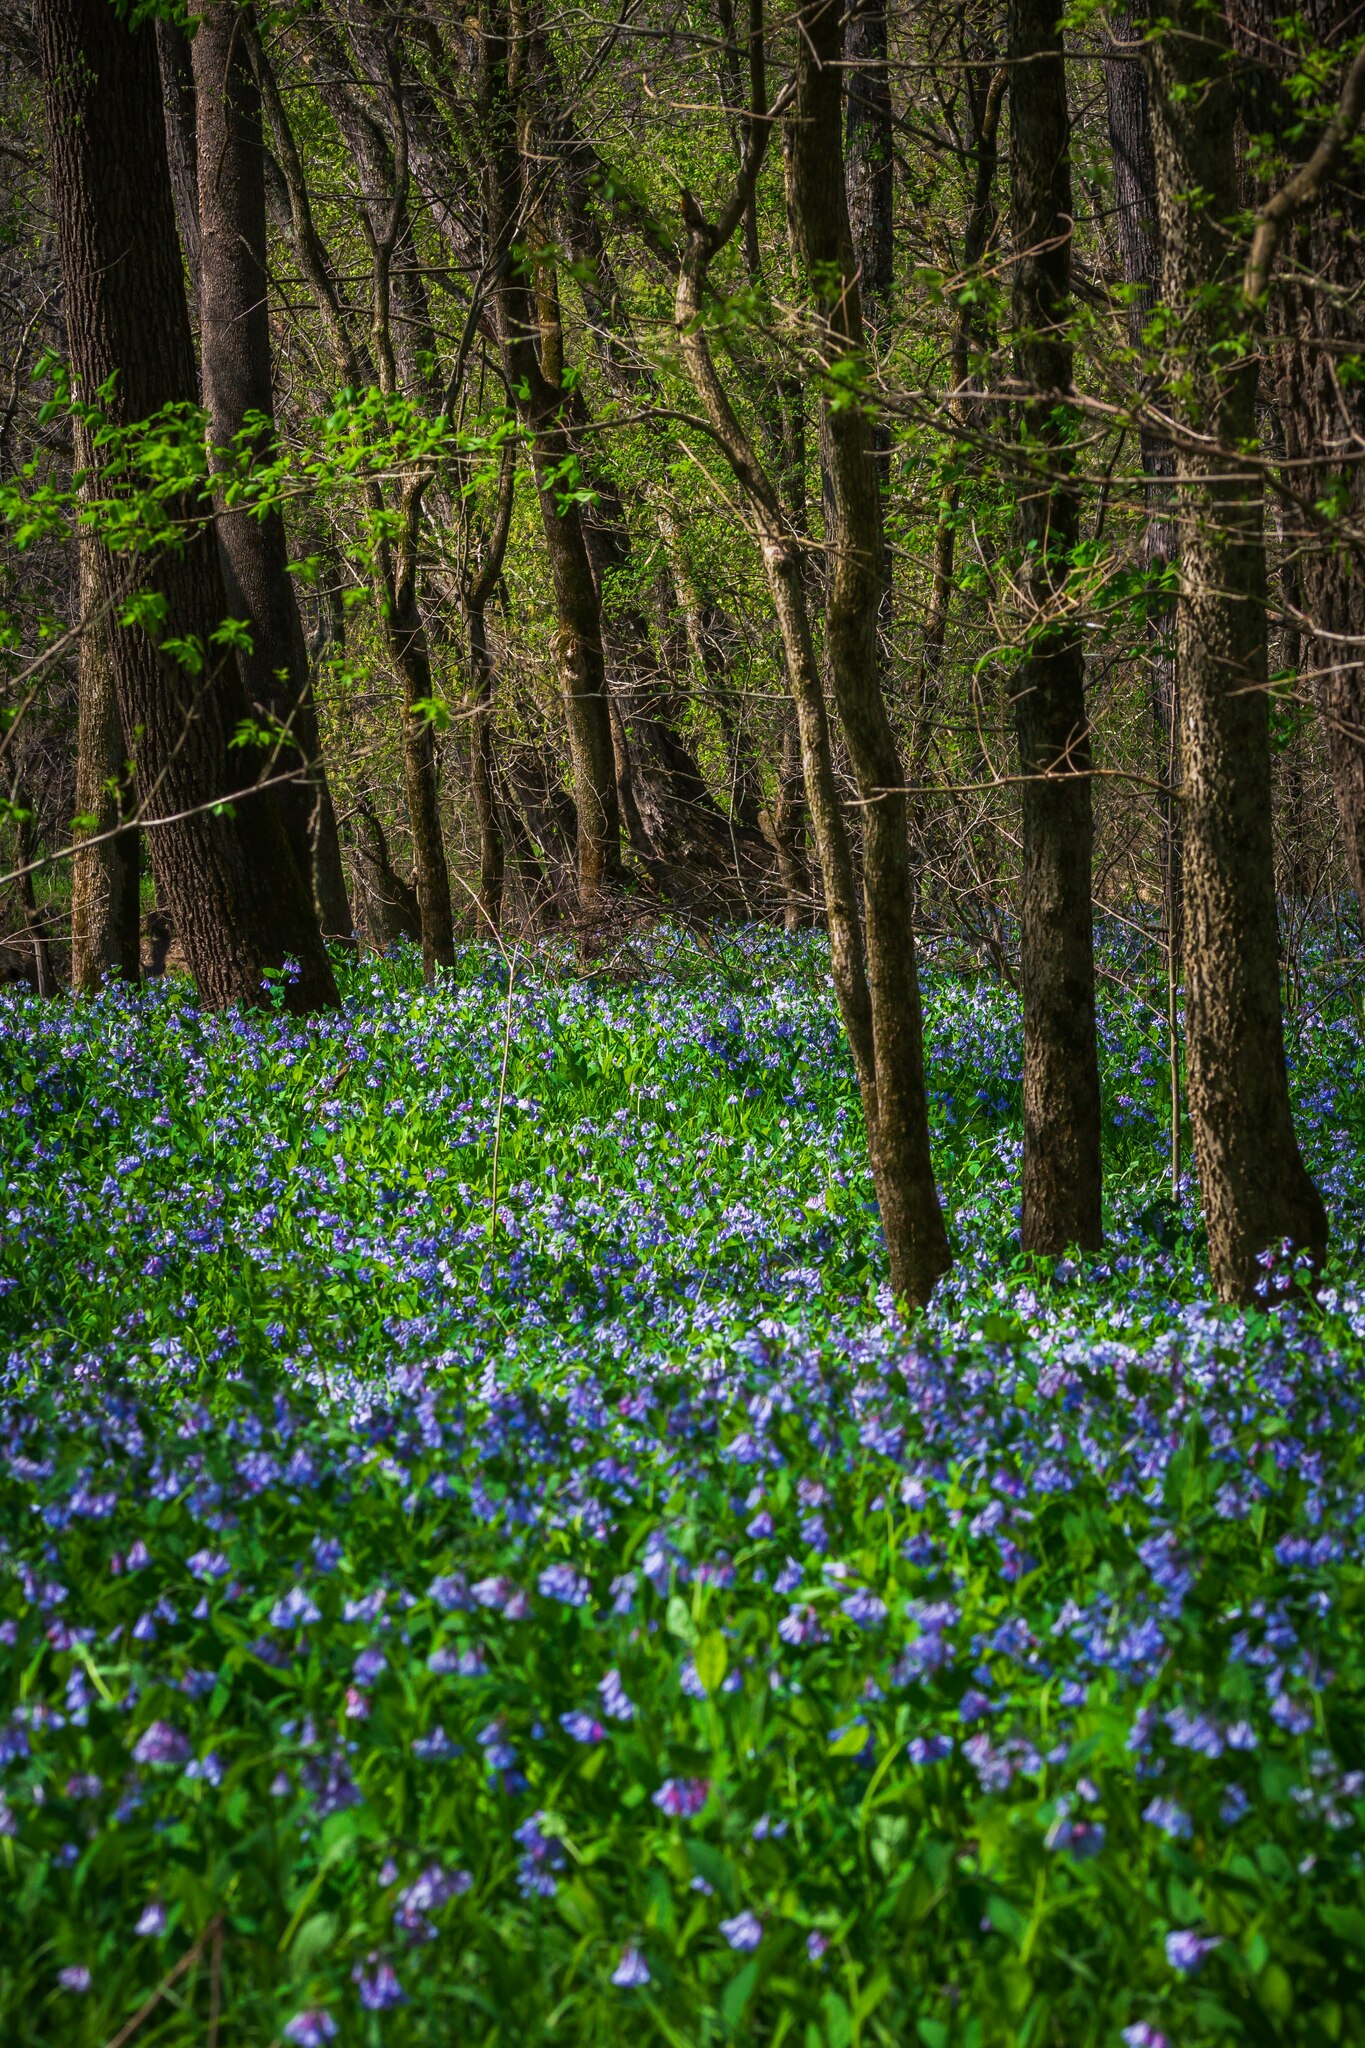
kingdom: Plantae
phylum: Tracheophyta
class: Magnoliopsida
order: Boraginales
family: Boraginaceae
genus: Mertensia
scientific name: Mertensia virginica
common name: Virginia bluebells
